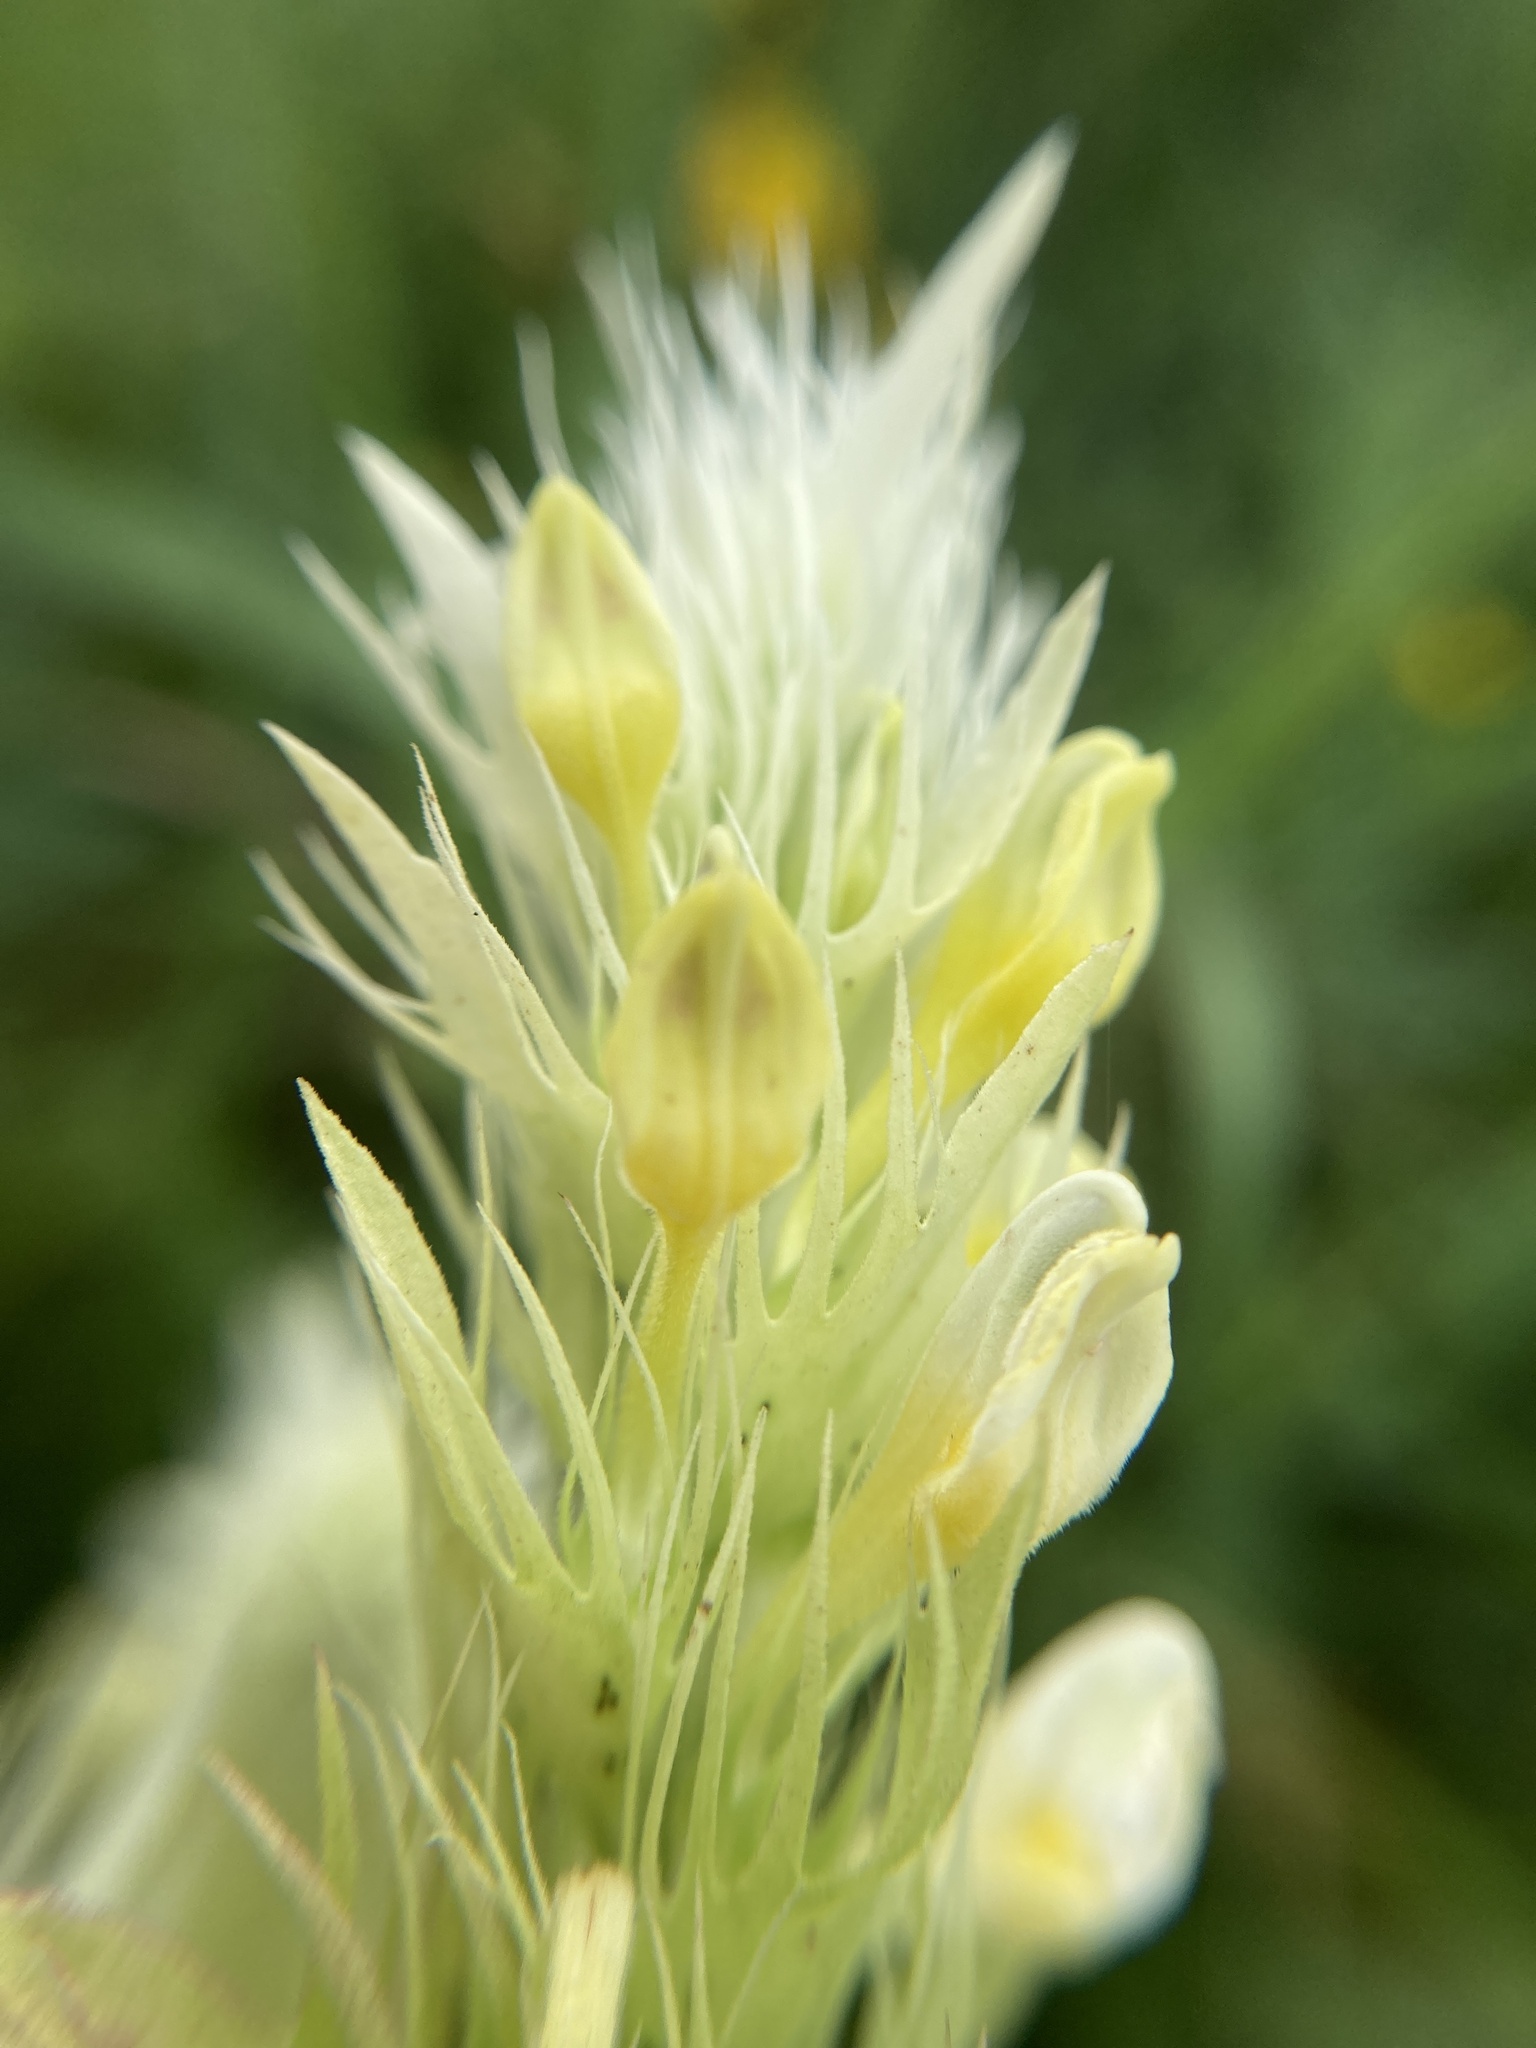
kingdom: Plantae
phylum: Tracheophyta
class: Magnoliopsida
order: Lamiales
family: Orobanchaceae
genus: Melampyrum
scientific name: Melampyrum arvense
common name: Field cow-wheat
